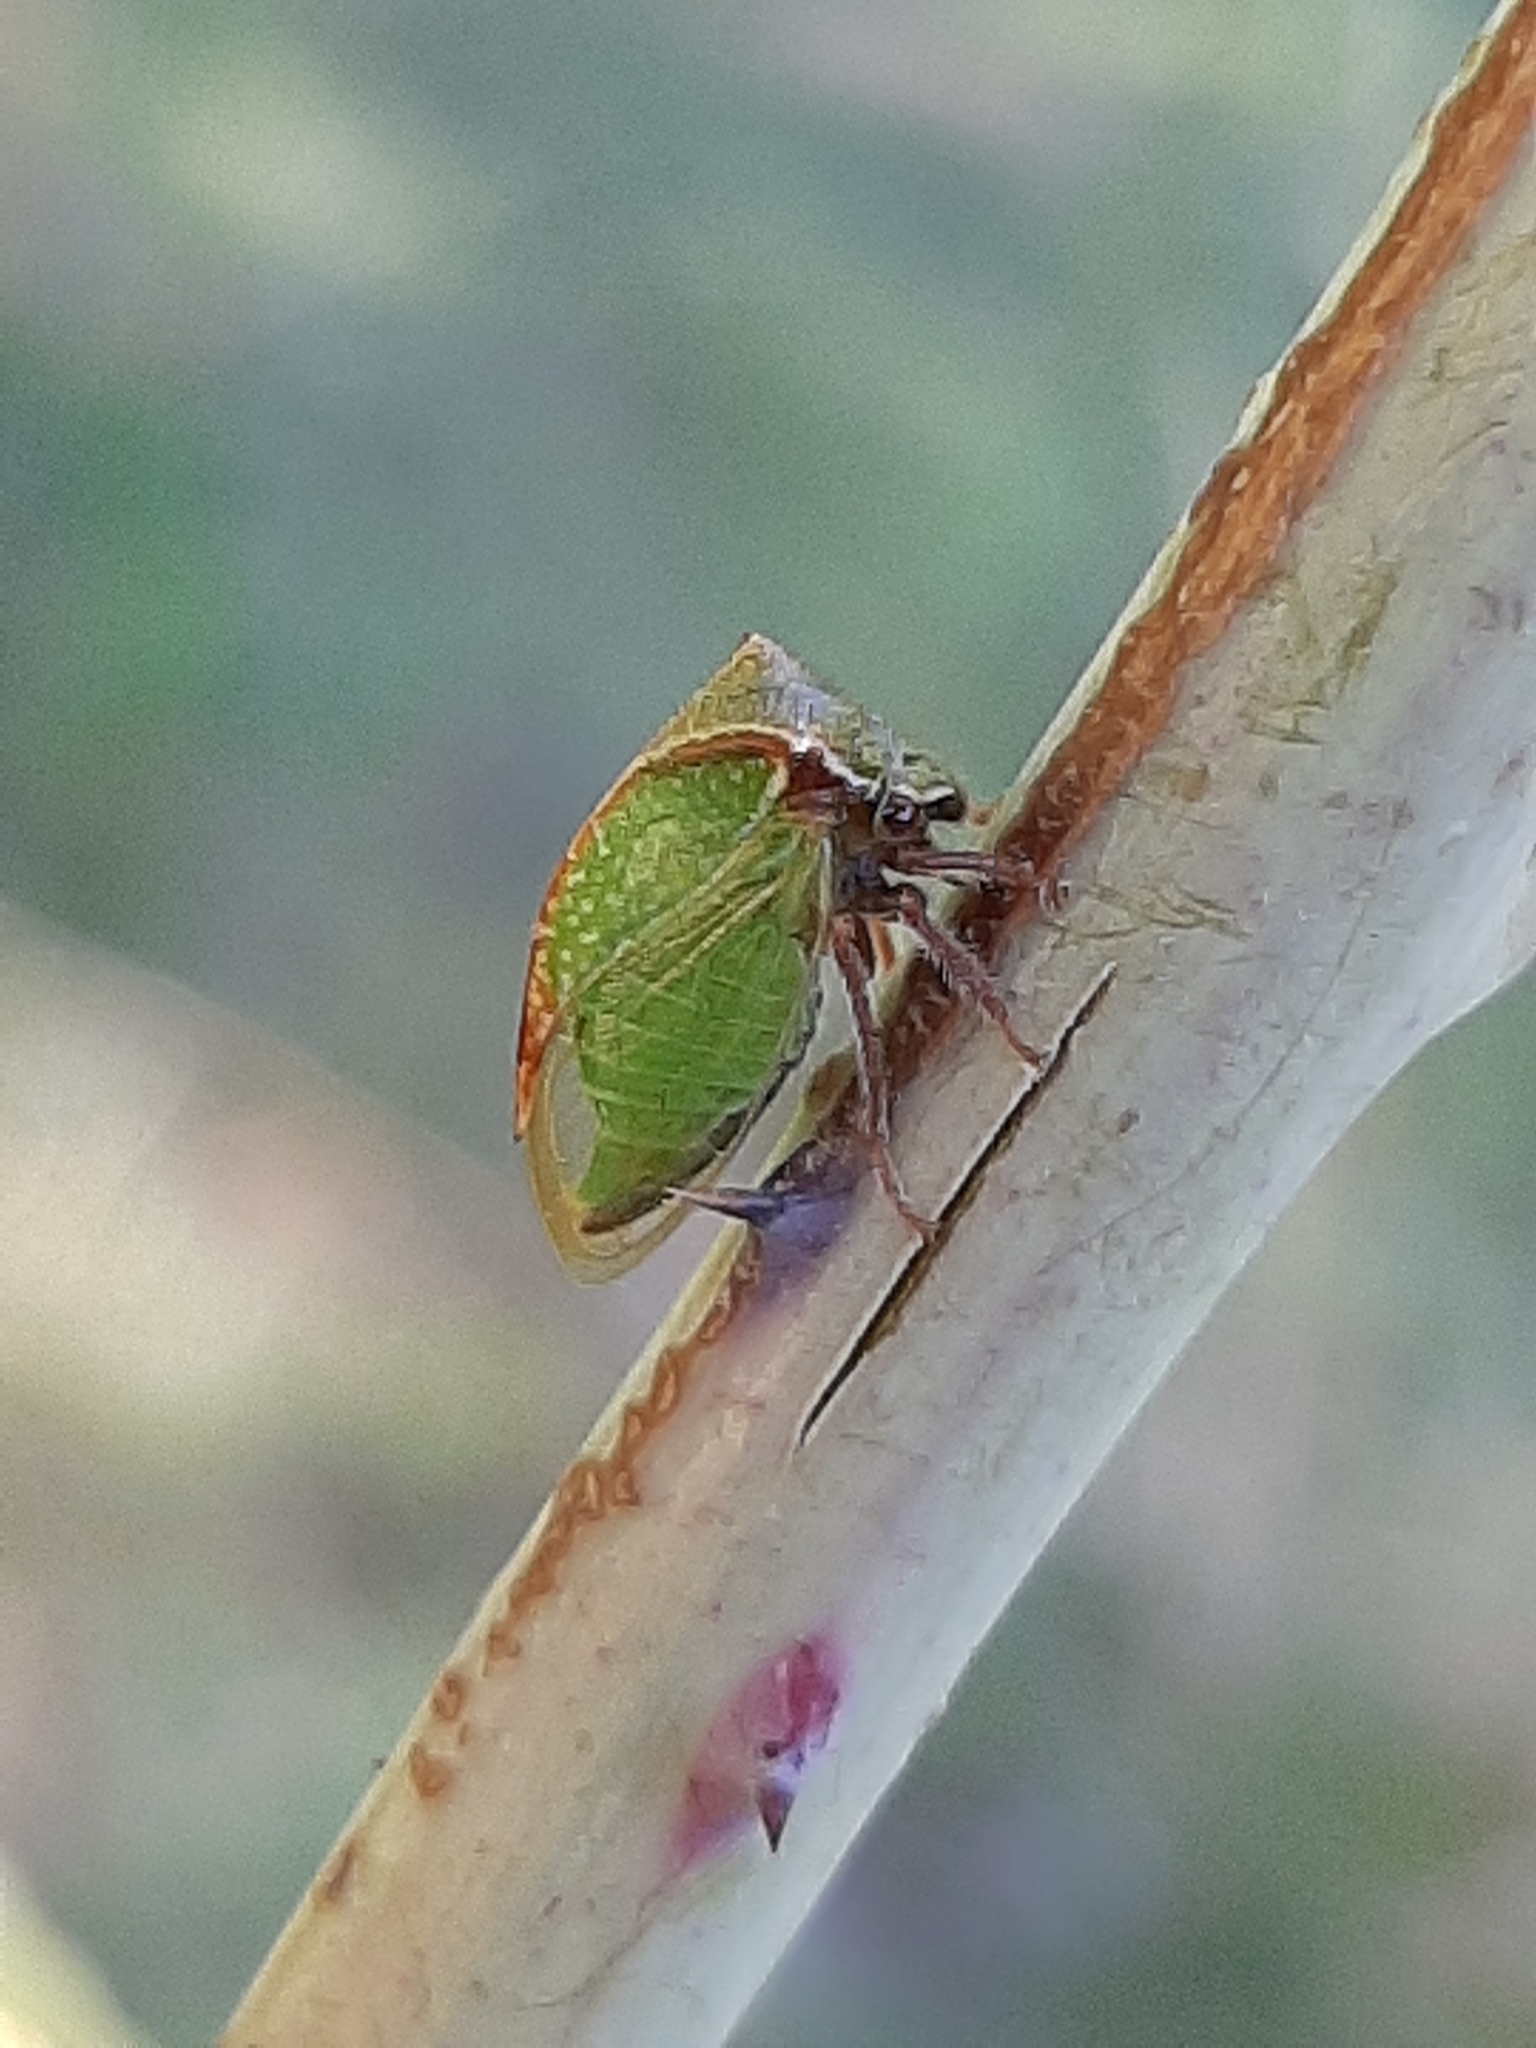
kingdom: Animalia
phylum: Arthropoda
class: Insecta
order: Hemiptera
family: Membracidae
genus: Stictocephala
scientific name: Stictocephala basalis
